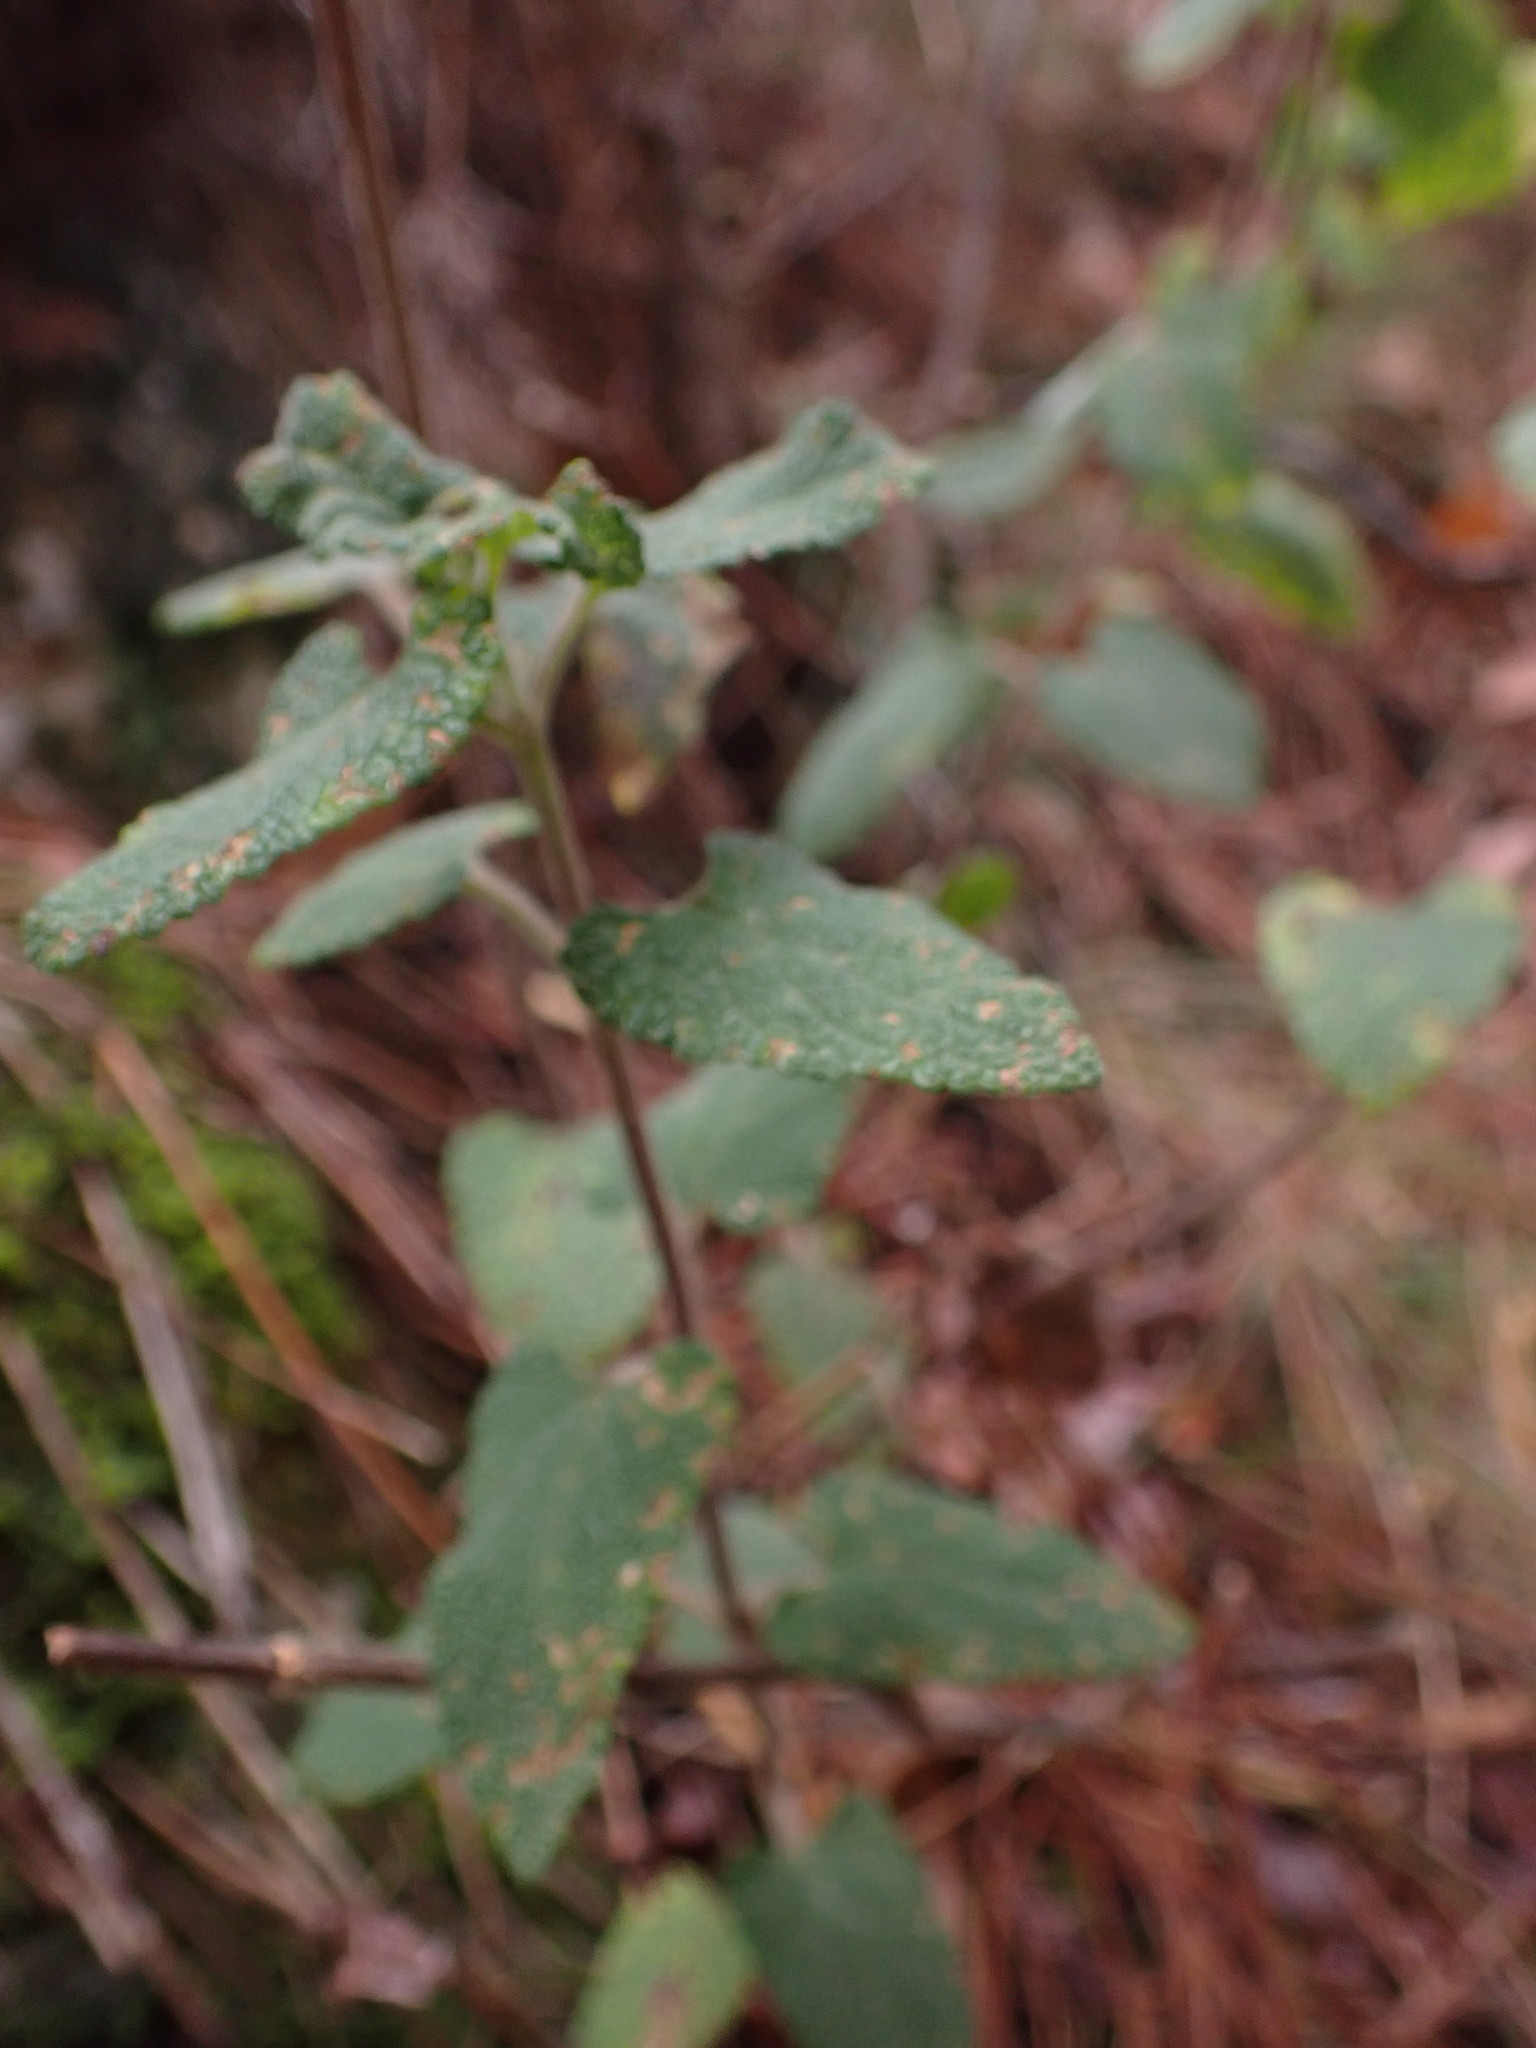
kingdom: Plantae
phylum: Tracheophyta
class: Magnoliopsida
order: Lamiales
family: Lamiaceae
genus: Teucrium
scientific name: Teucrium scorodonia
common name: Woodland germander
